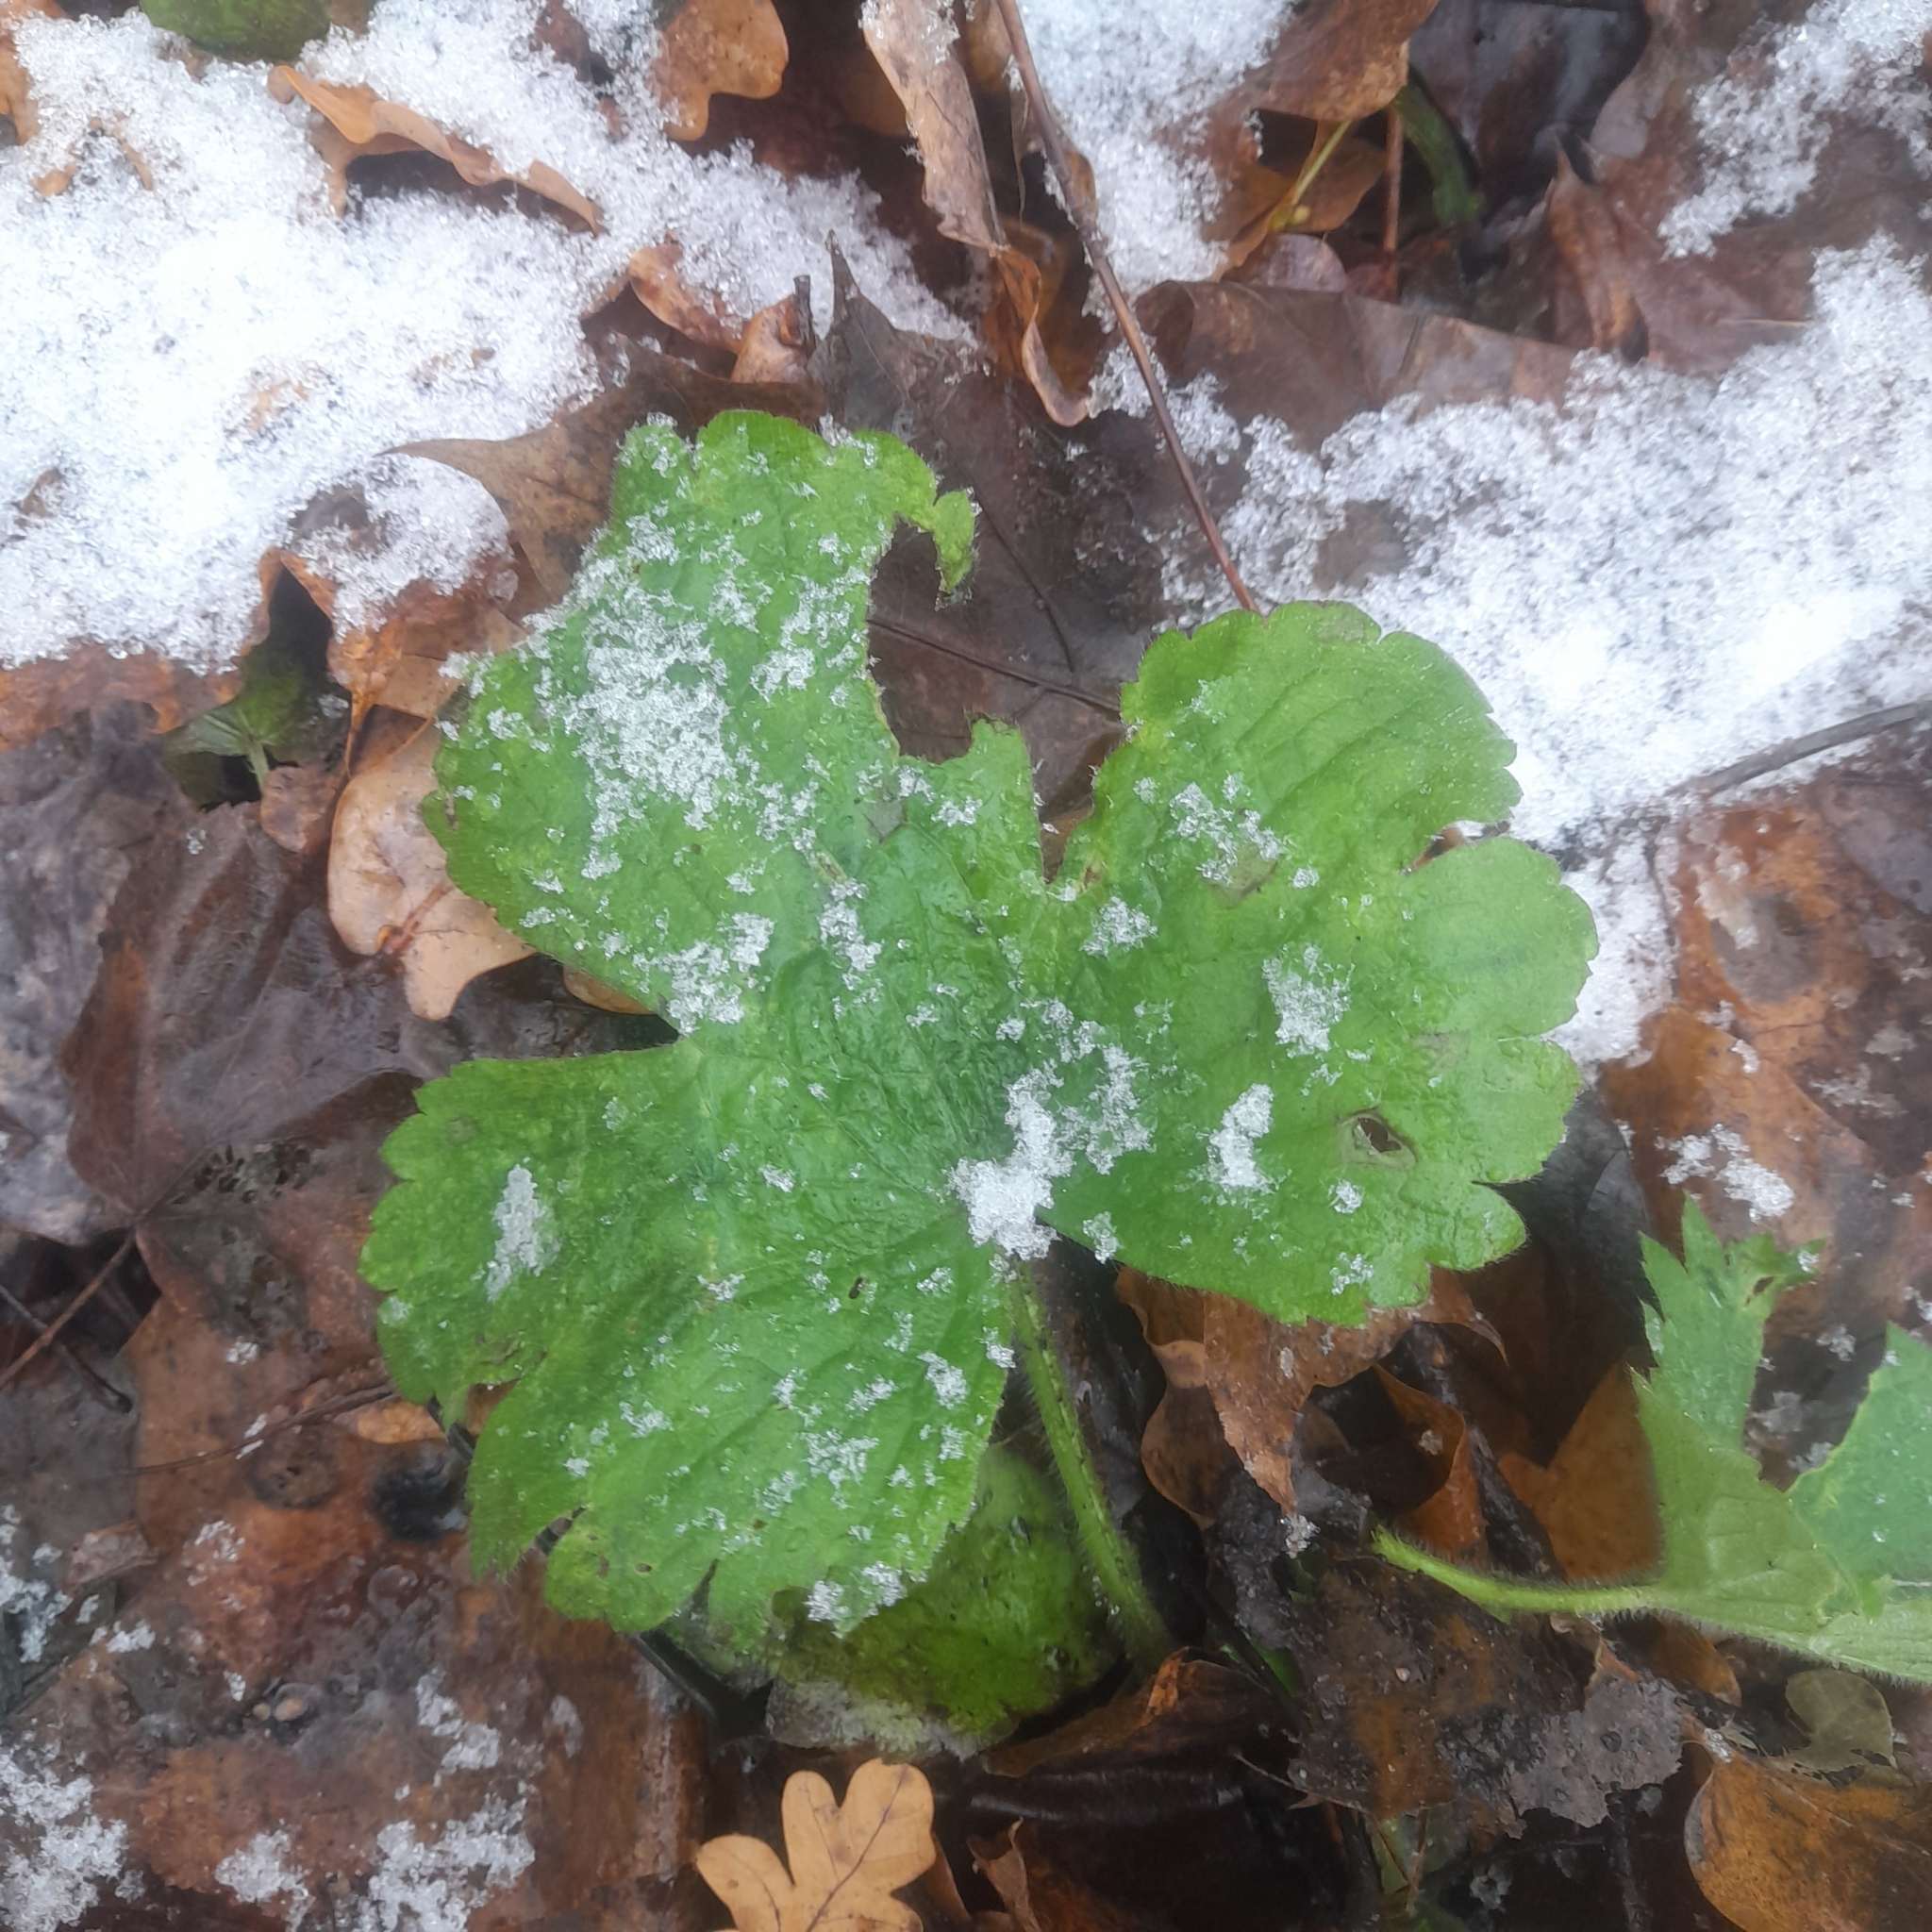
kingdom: Plantae
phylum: Tracheophyta
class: Magnoliopsida
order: Ranunculales
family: Ranunculaceae
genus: Ranunculus
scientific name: Ranunculus lanuginosus
